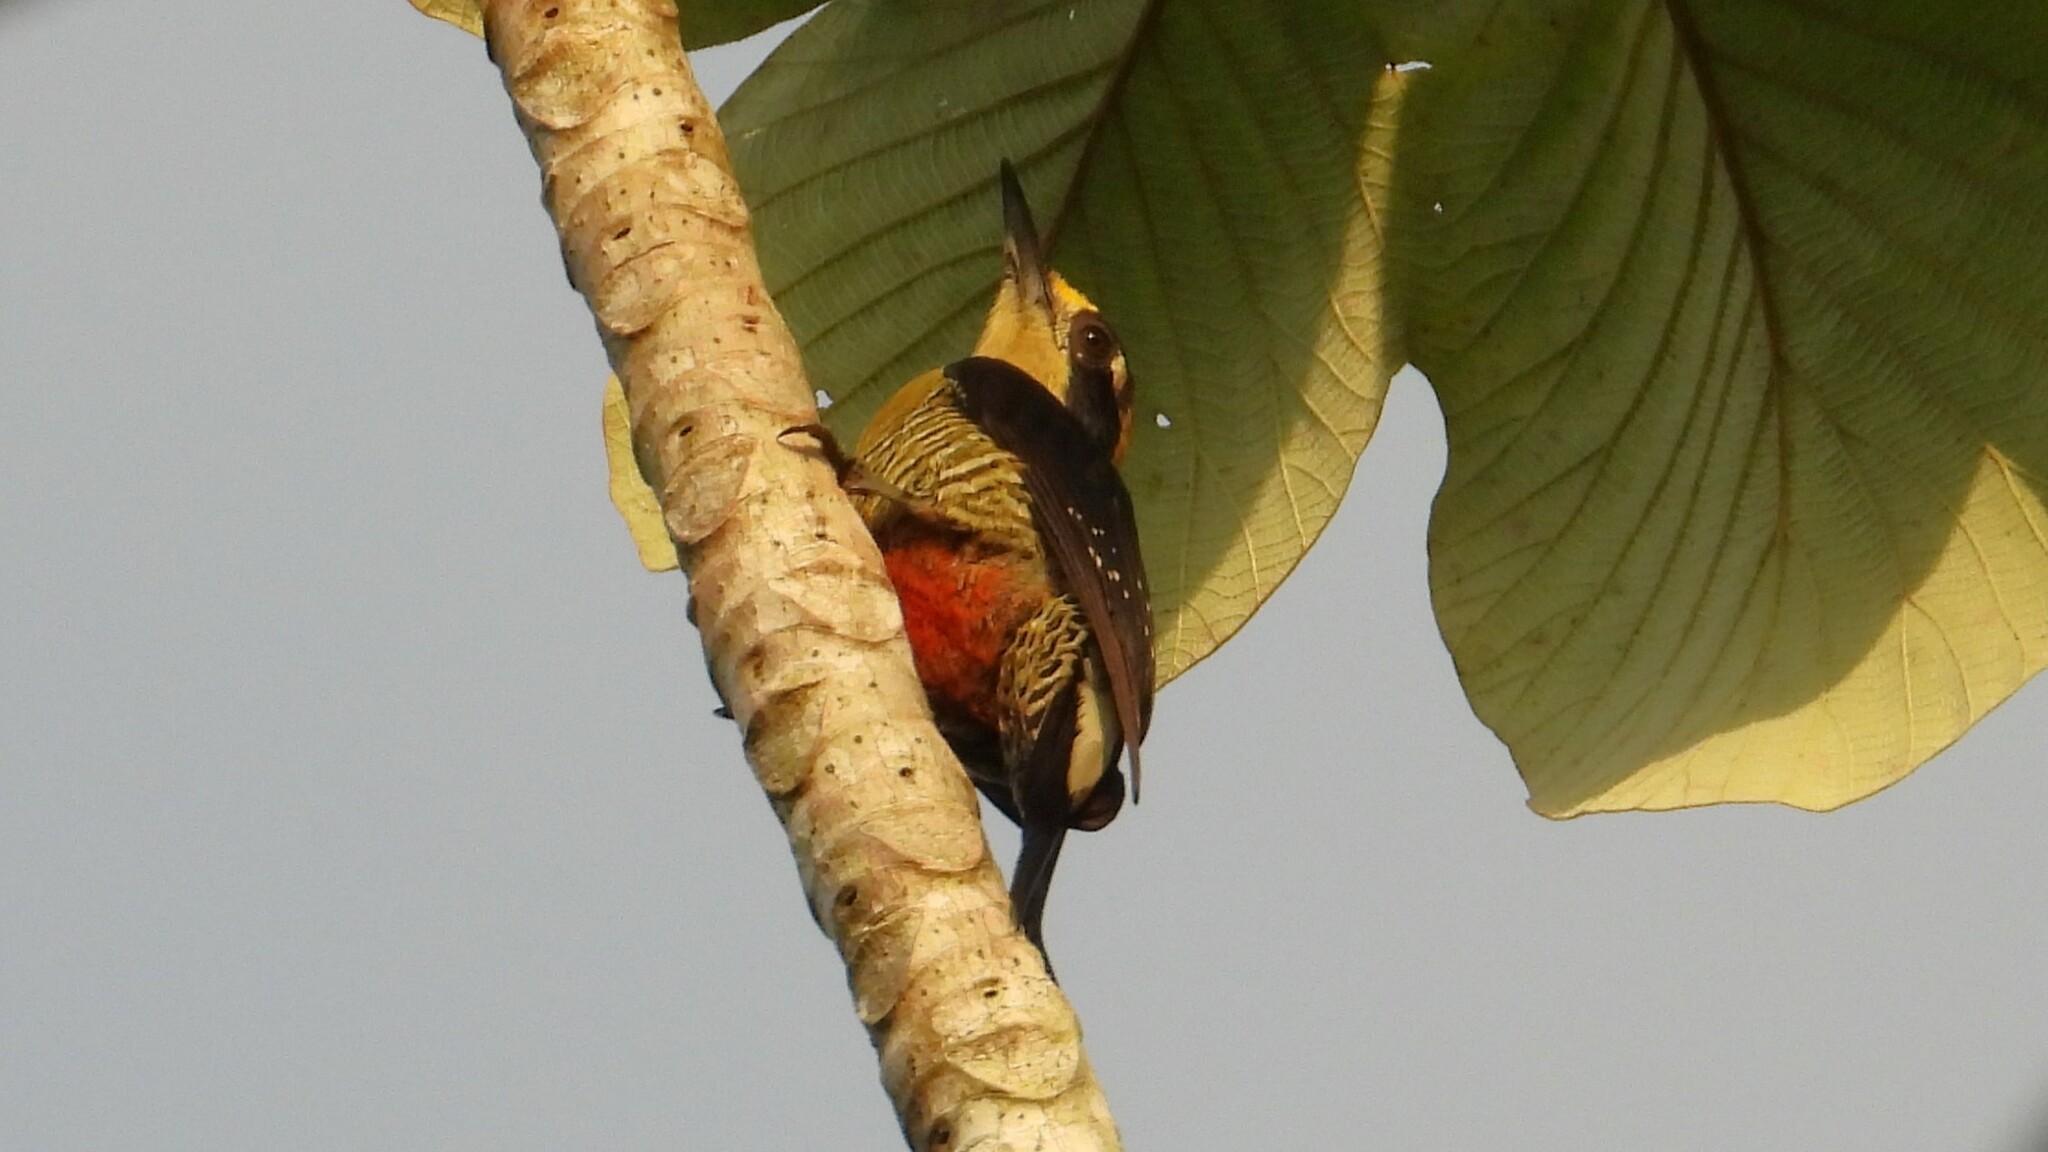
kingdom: Animalia
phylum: Chordata
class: Aves
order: Piciformes
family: Picidae
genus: Melanerpes
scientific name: Melanerpes chrysauchen
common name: Golden-naped woodpecker
